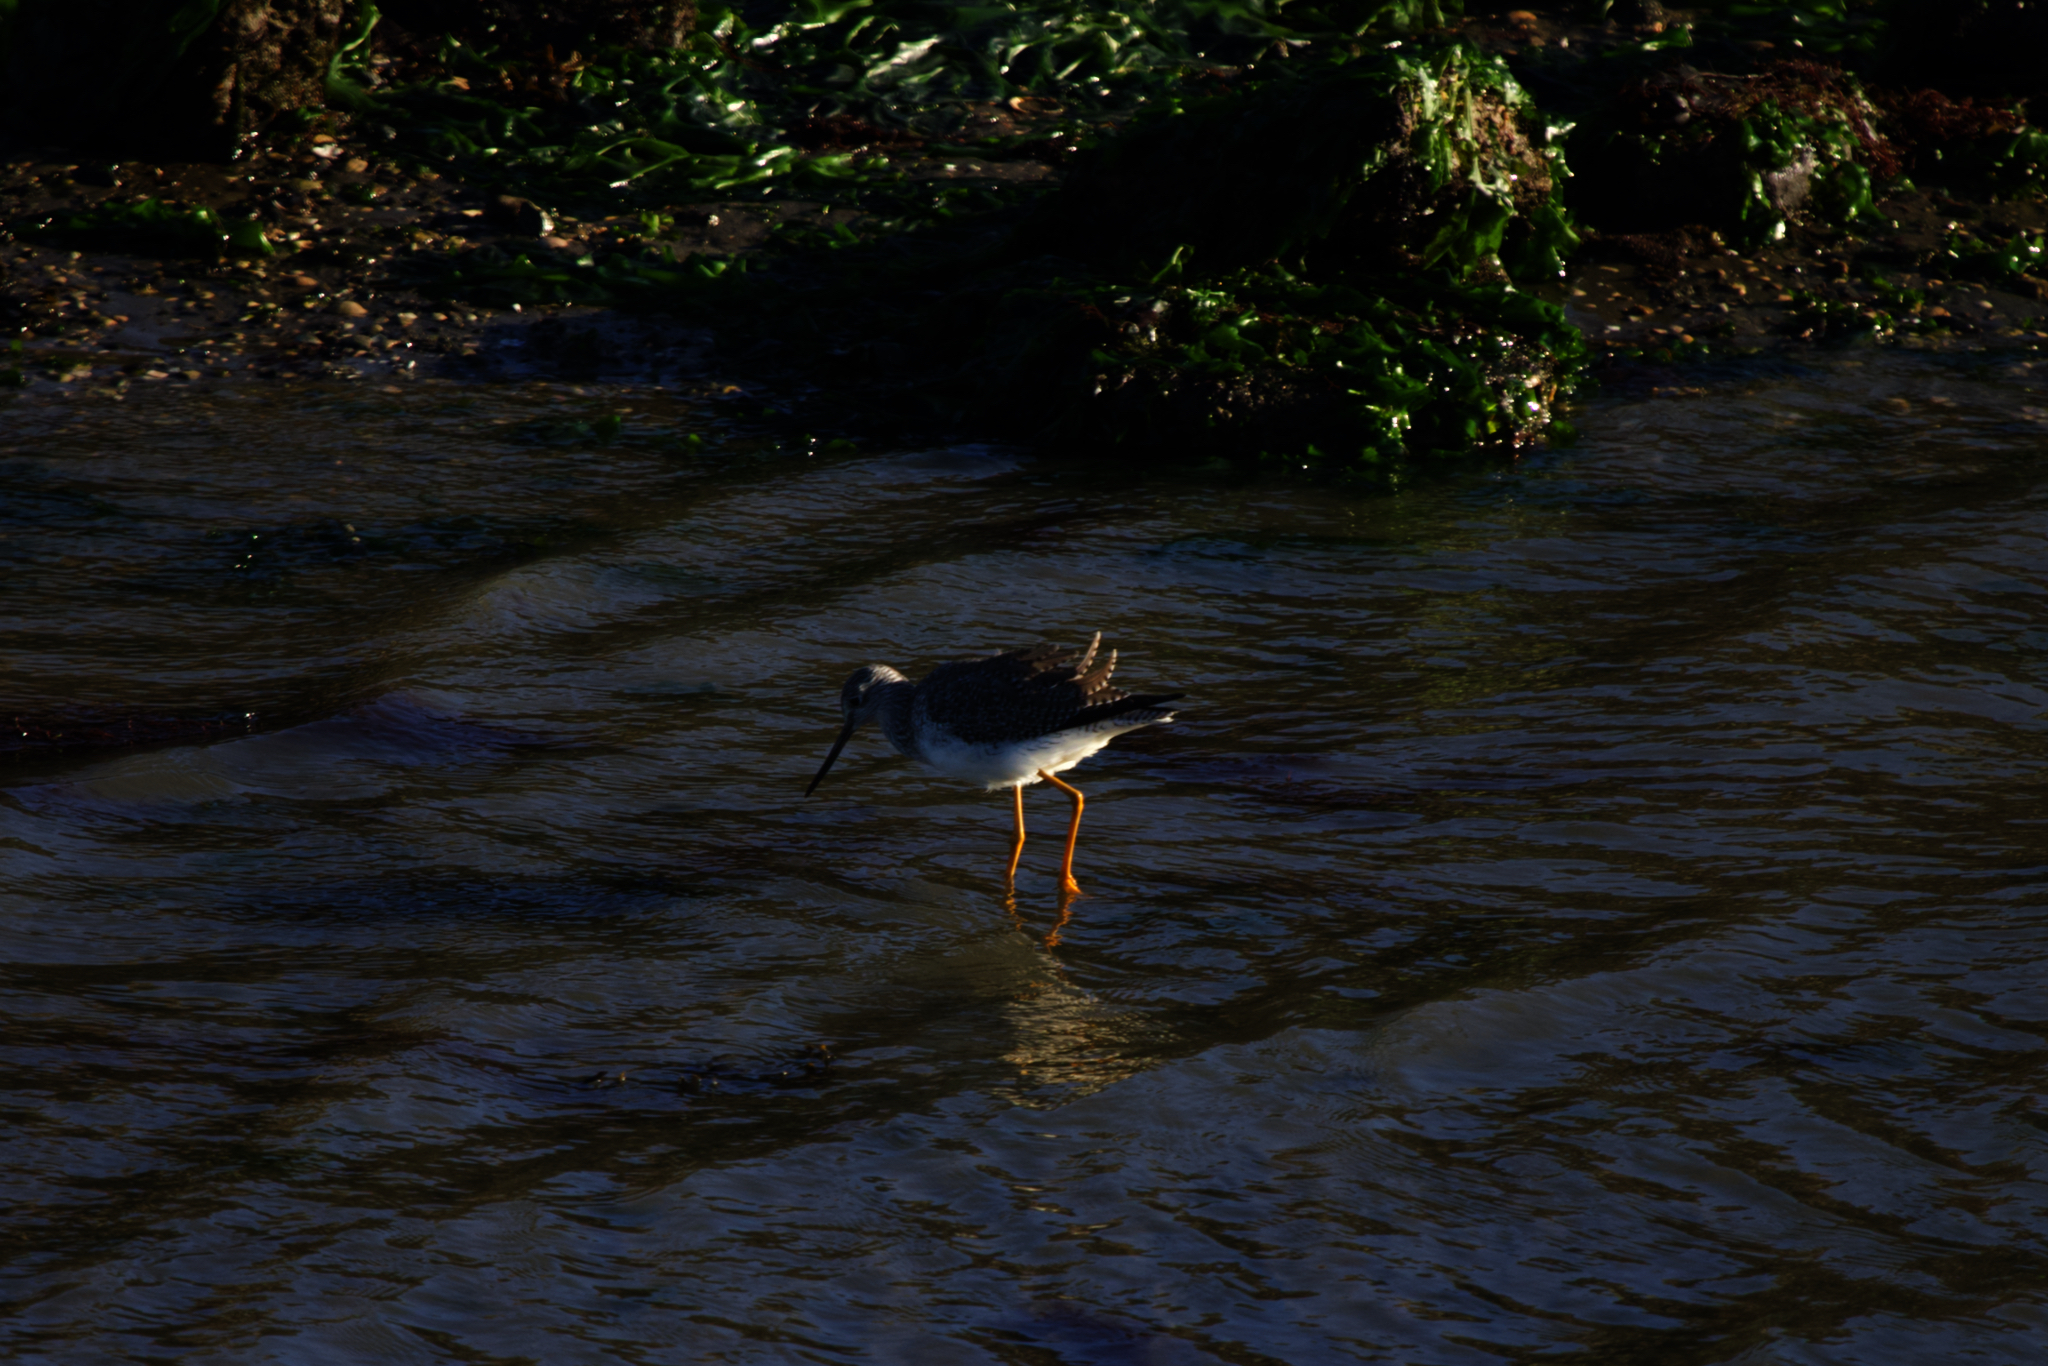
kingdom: Animalia
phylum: Chordata
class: Aves
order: Charadriiformes
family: Scolopacidae
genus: Tringa
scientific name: Tringa melanoleuca
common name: Greater yellowlegs
